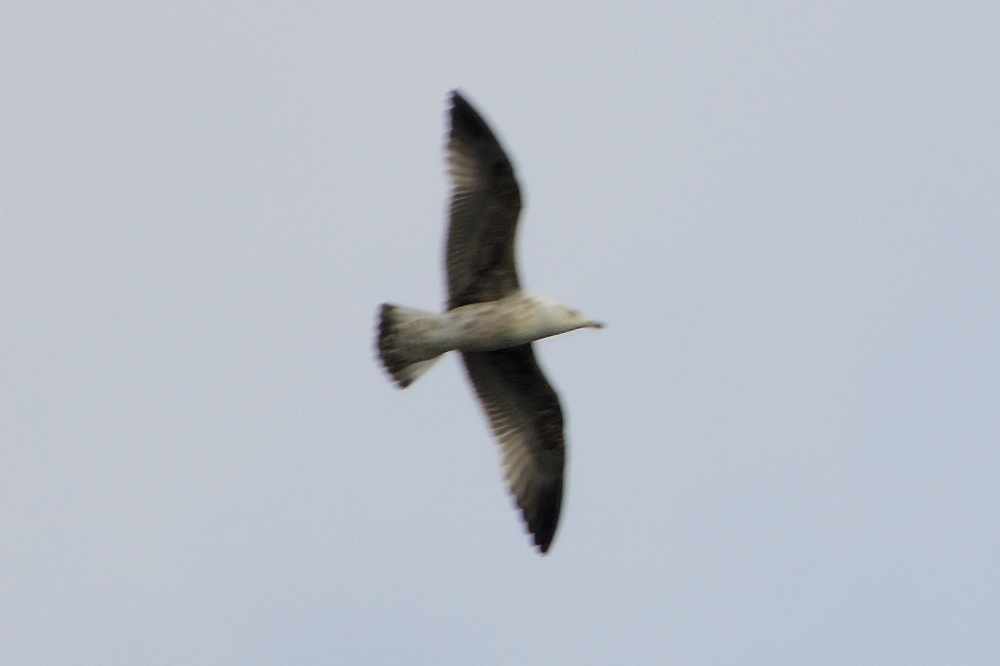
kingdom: Animalia
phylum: Chordata
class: Aves
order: Charadriiformes
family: Laridae
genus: Larus
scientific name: Larus michahellis
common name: Yellow-legged gull
